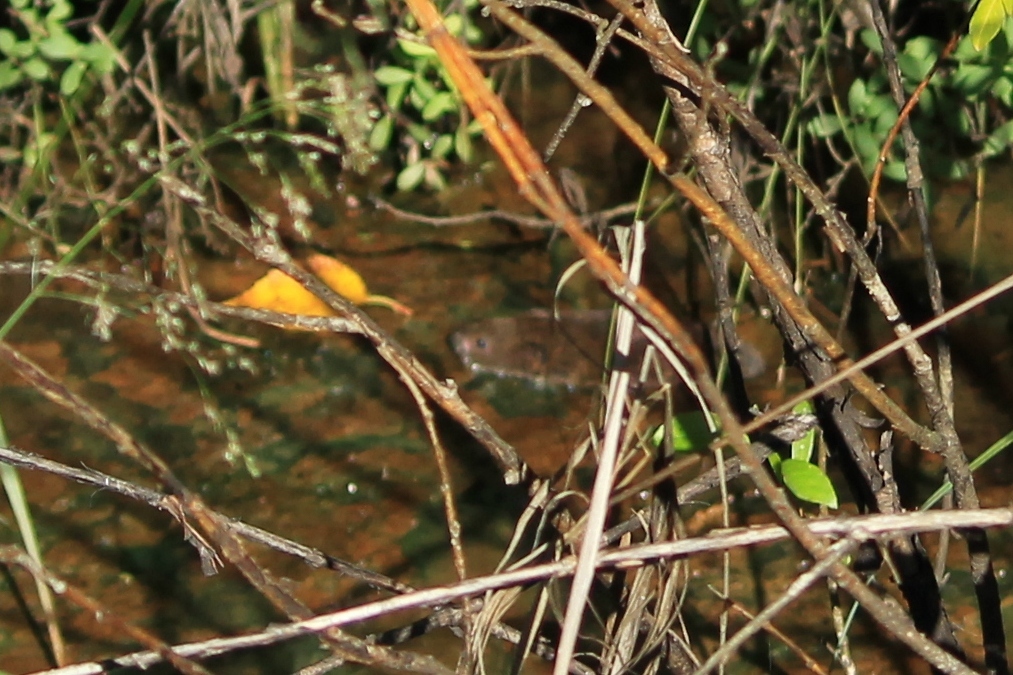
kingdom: Animalia
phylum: Chordata
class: Mammalia
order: Rodentia
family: Cricetidae
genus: Arvicola
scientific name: Arvicola amphibius
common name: European water vole
